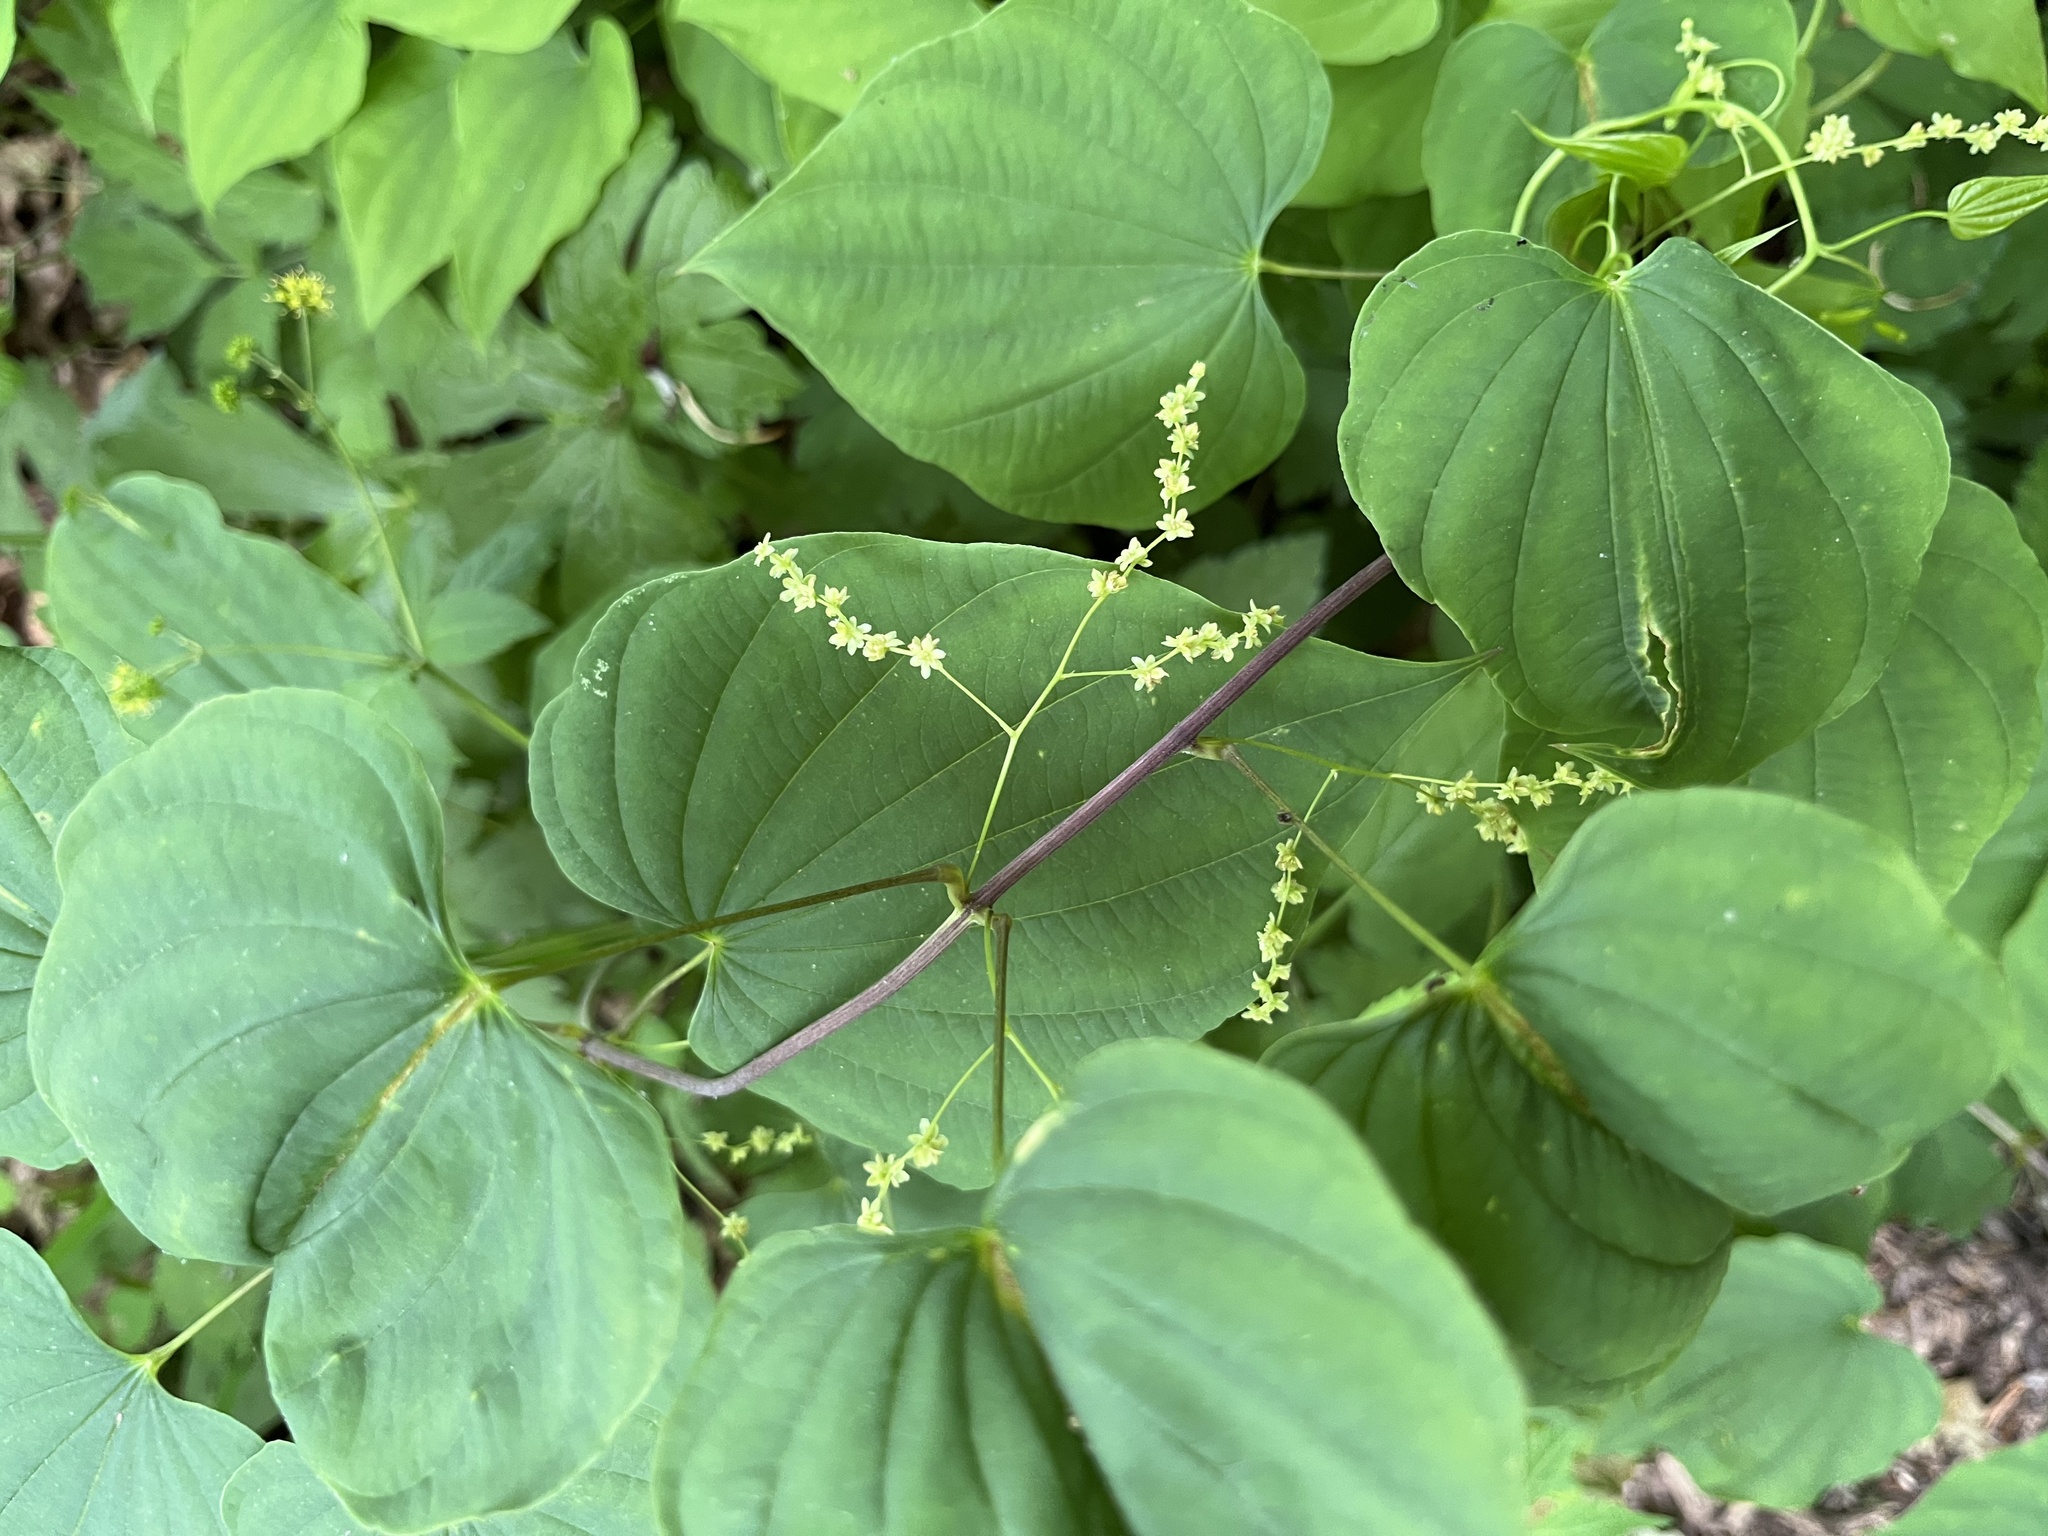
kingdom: Plantae
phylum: Tracheophyta
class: Liliopsida
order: Dioscoreales
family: Dioscoreaceae
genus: Dioscorea
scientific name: Dioscorea villosa
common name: Wild yam
